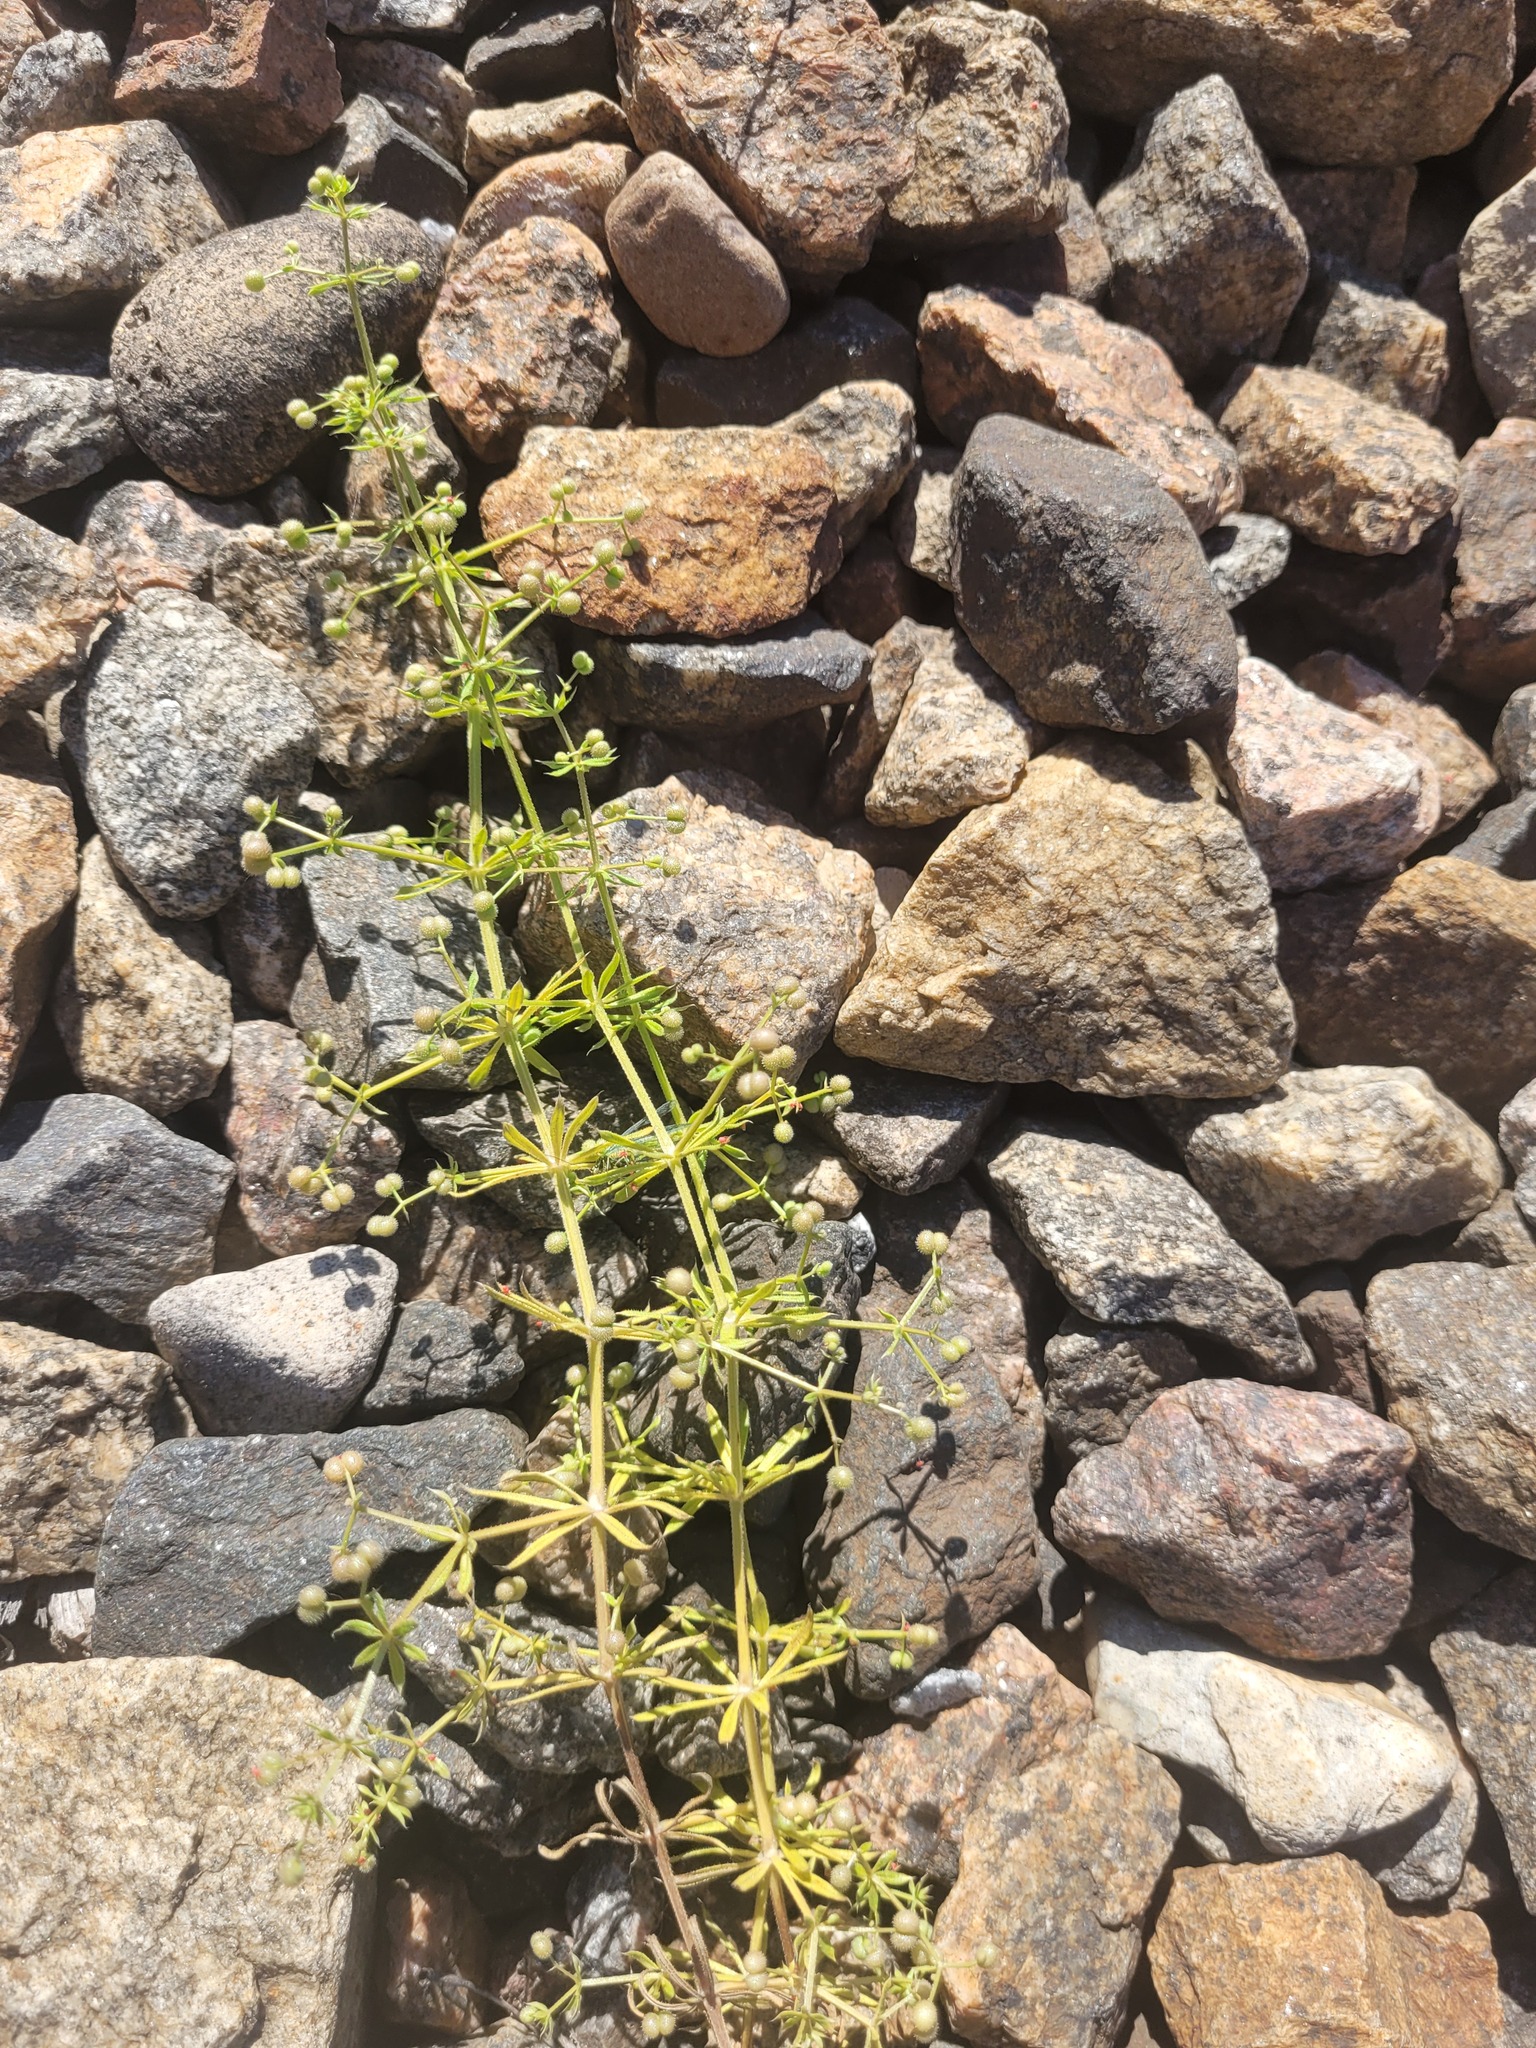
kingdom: Plantae
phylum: Tracheophyta
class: Magnoliopsida
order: Gentianales
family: Rubiaceae
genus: Galium
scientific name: Galium
